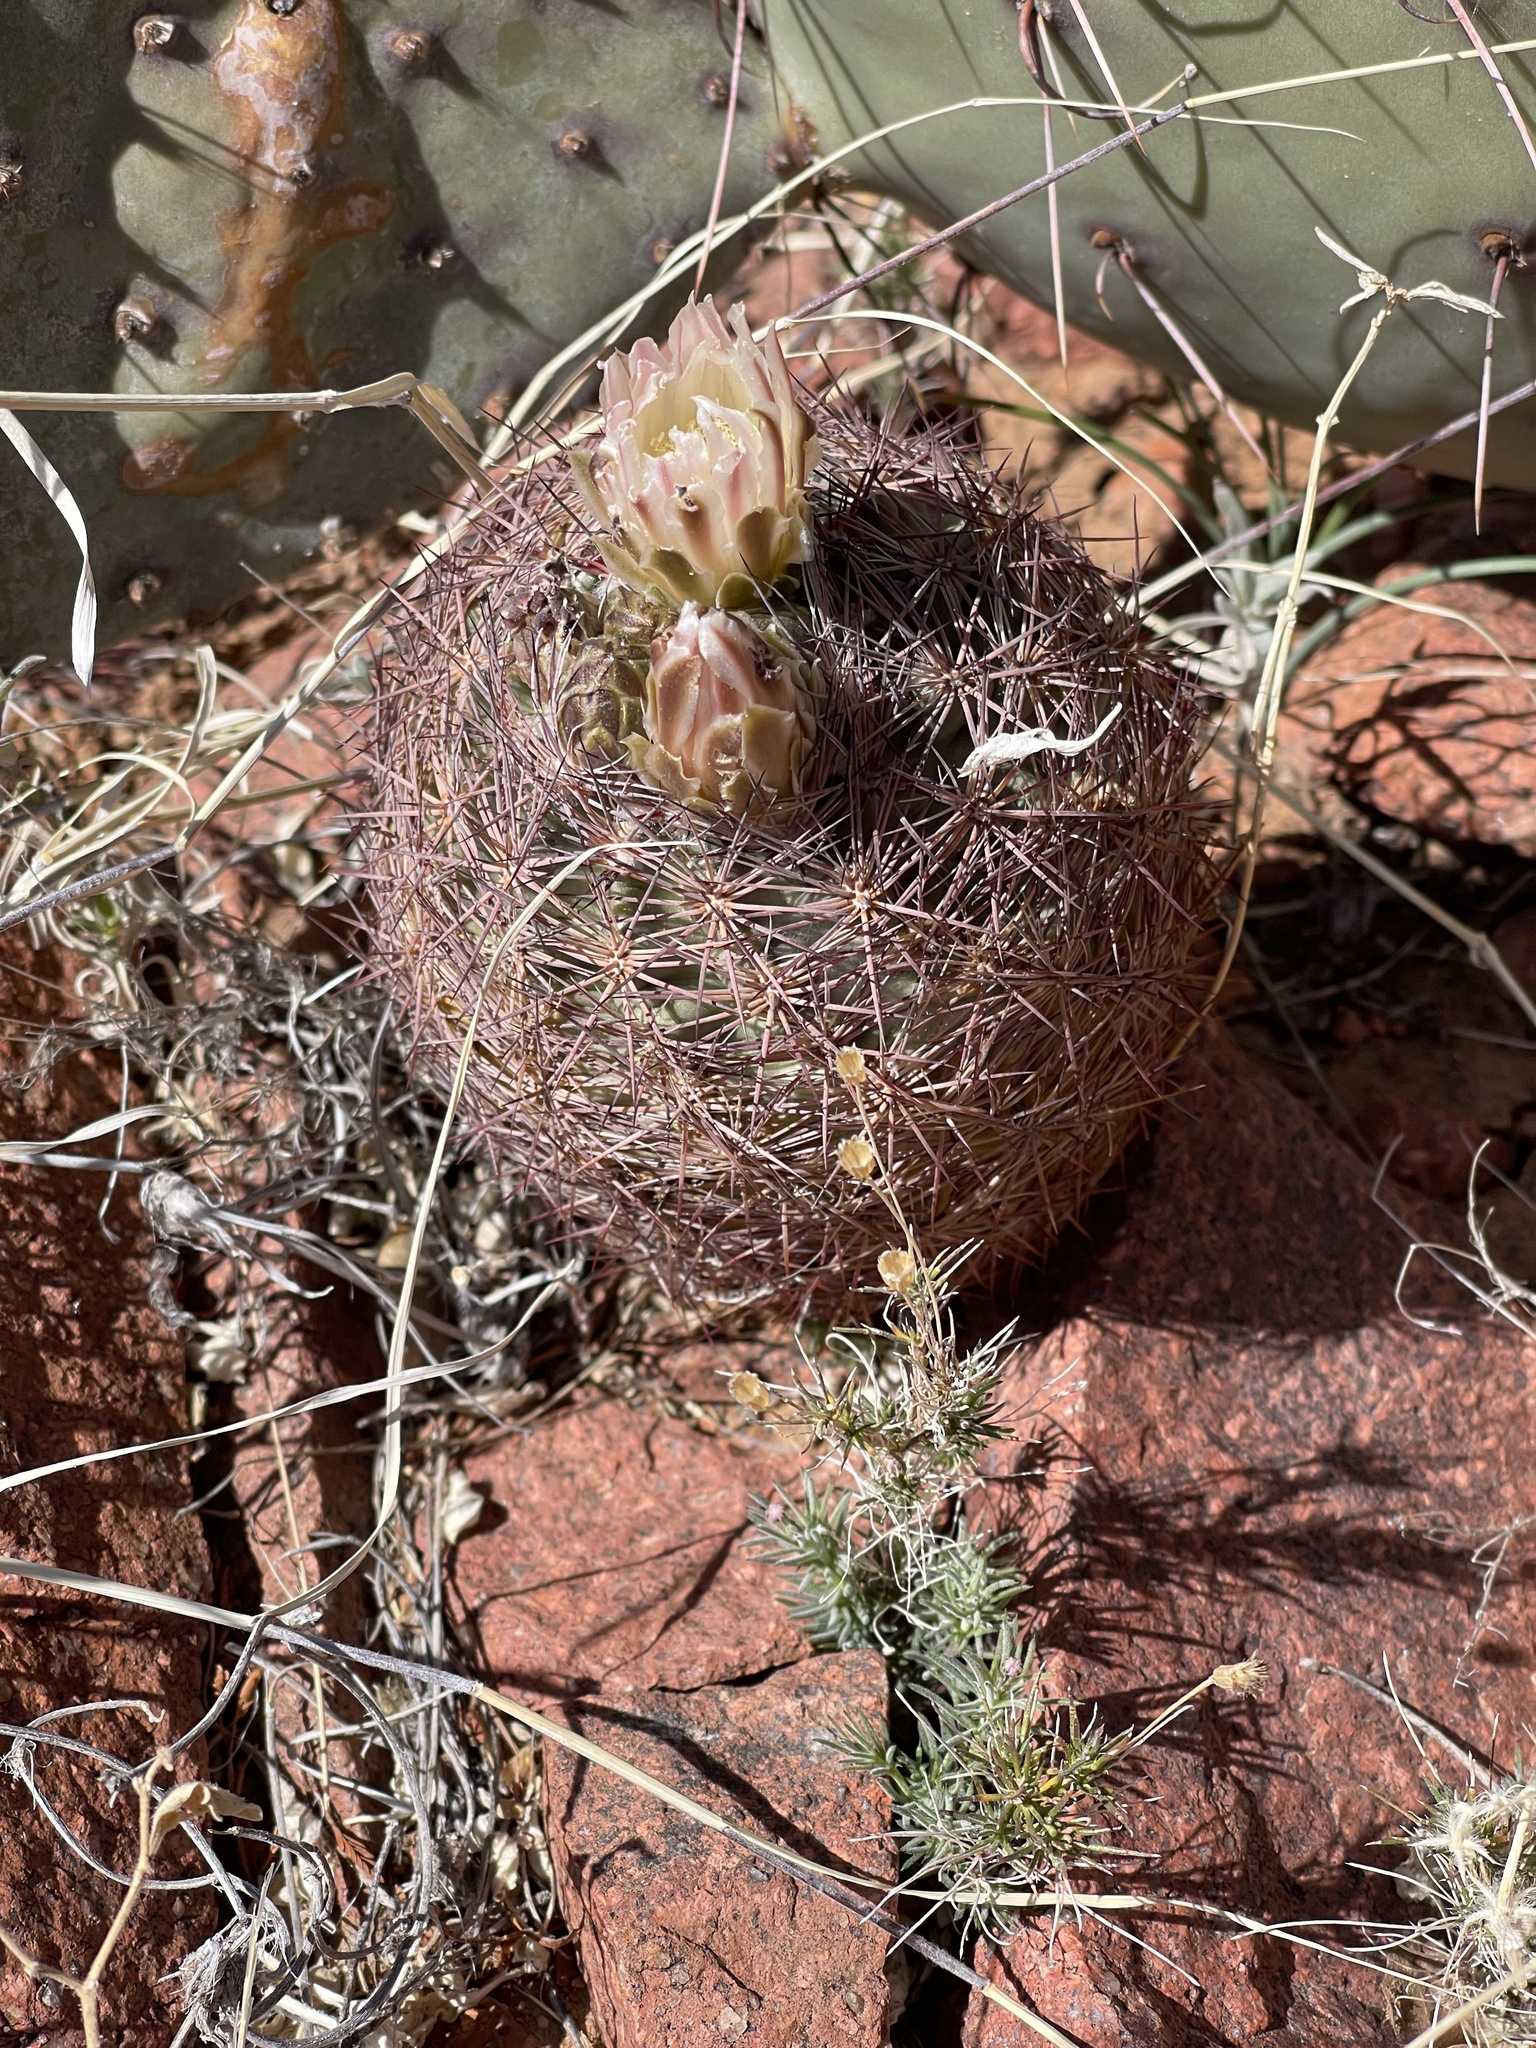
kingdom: Plantae
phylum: Tracheophyta
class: Magnoliopsida
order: Caryophyllales
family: Cactaceae
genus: Sclerocactus
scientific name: Sclerocactus intertextus
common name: White fish-hook cactus
